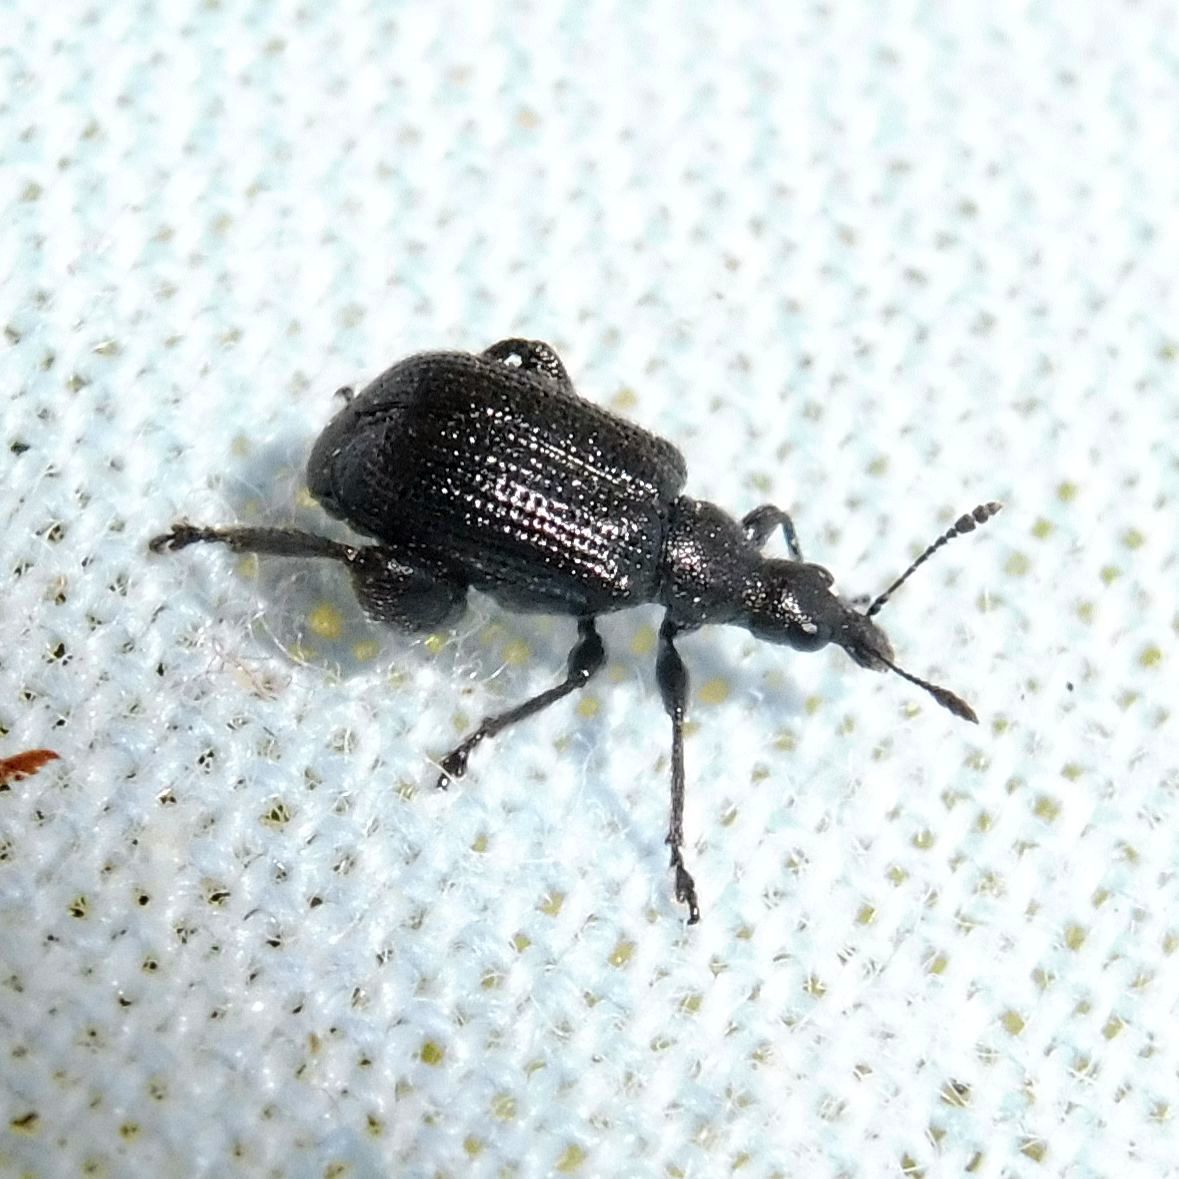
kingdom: Animalia
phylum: Arthropoda
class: Insecta
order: Coleoptera
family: Attelabidae
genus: Deporaus
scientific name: Deporaus betulae
